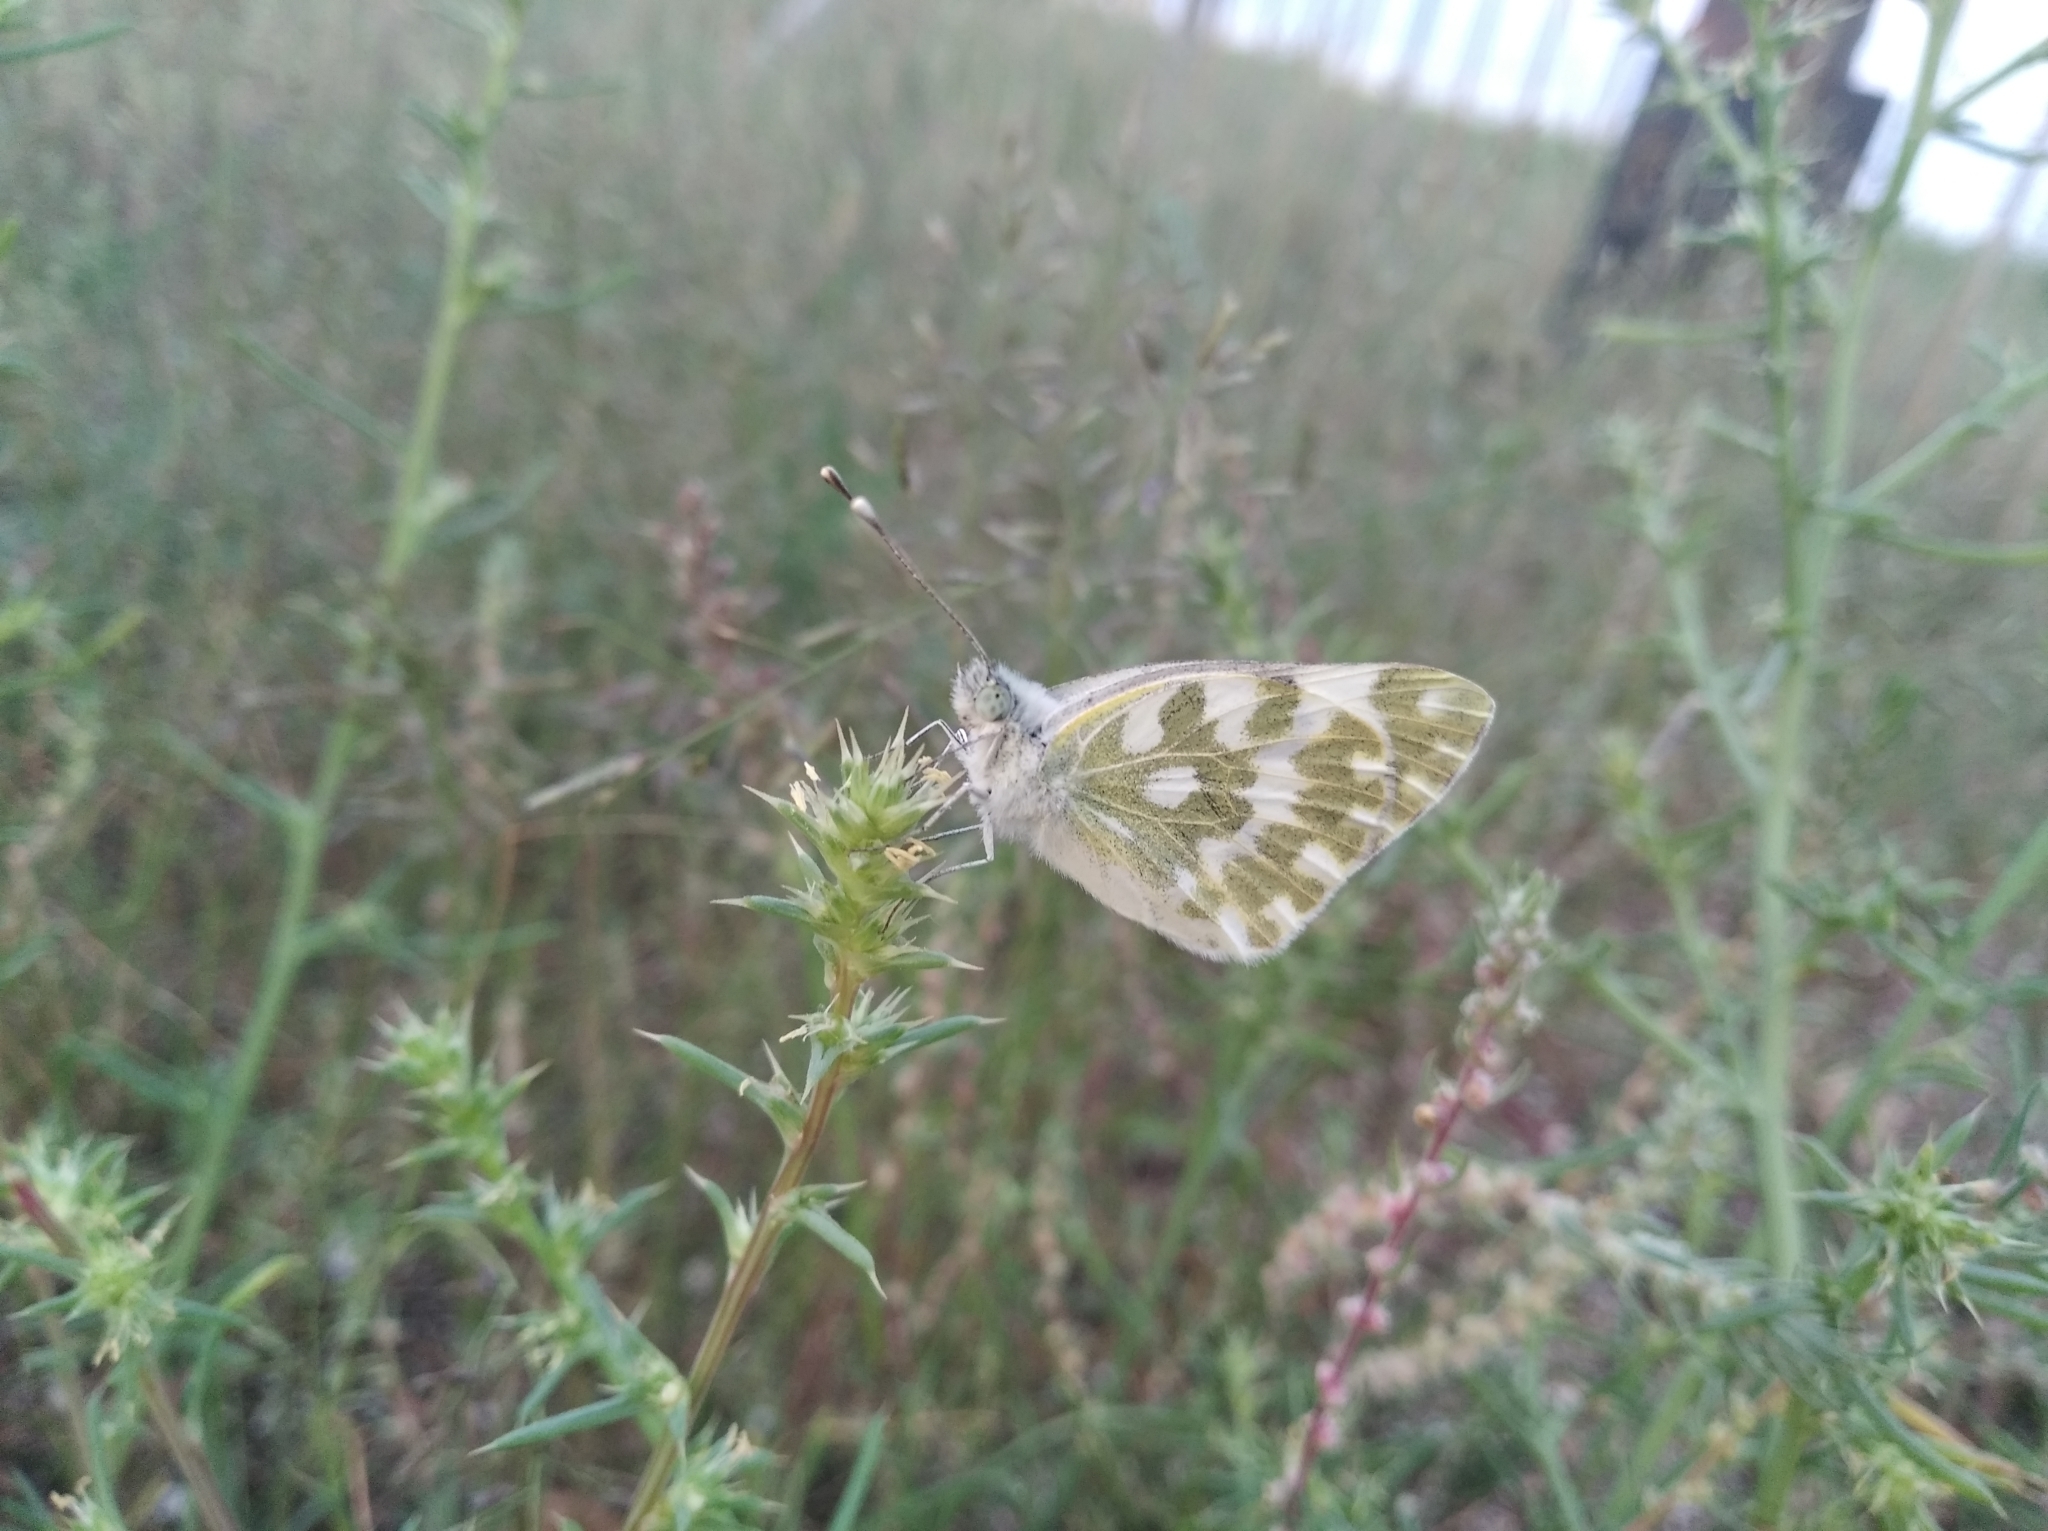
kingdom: Animalia
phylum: Arthropoda
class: Insecta
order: Lepidoptera
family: Pieridae
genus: Pontia
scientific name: Pontia edusa
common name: Eastern bath white
